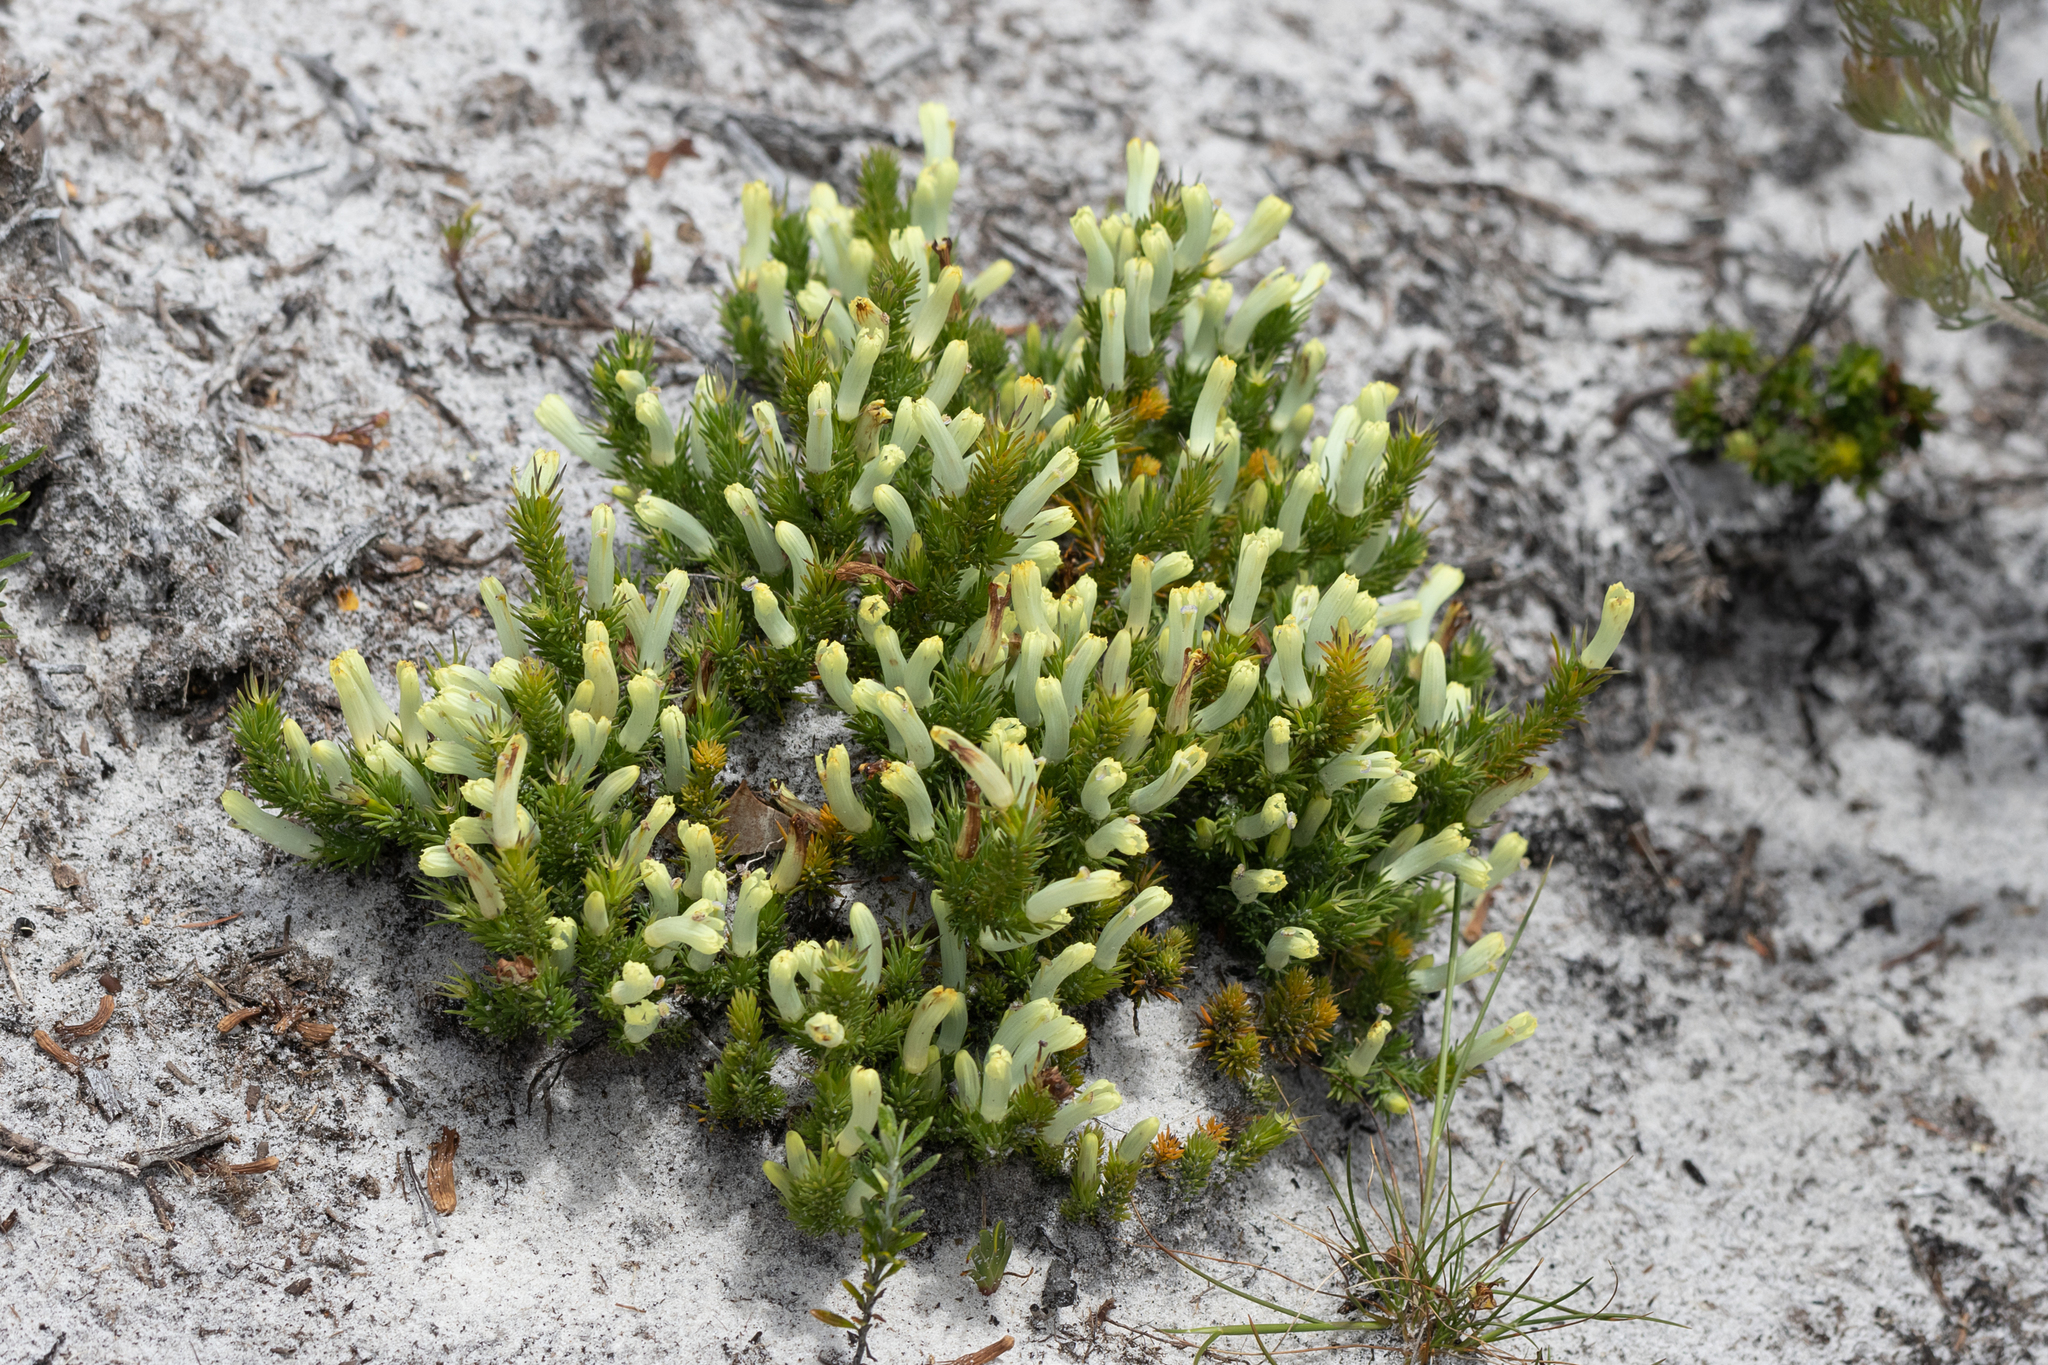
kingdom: Plantae
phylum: Tracheophyta
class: Magnoliopsida
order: Asterales
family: Goodeniaceae
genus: Lechenaultia
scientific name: Lechenaultia tubiflora
